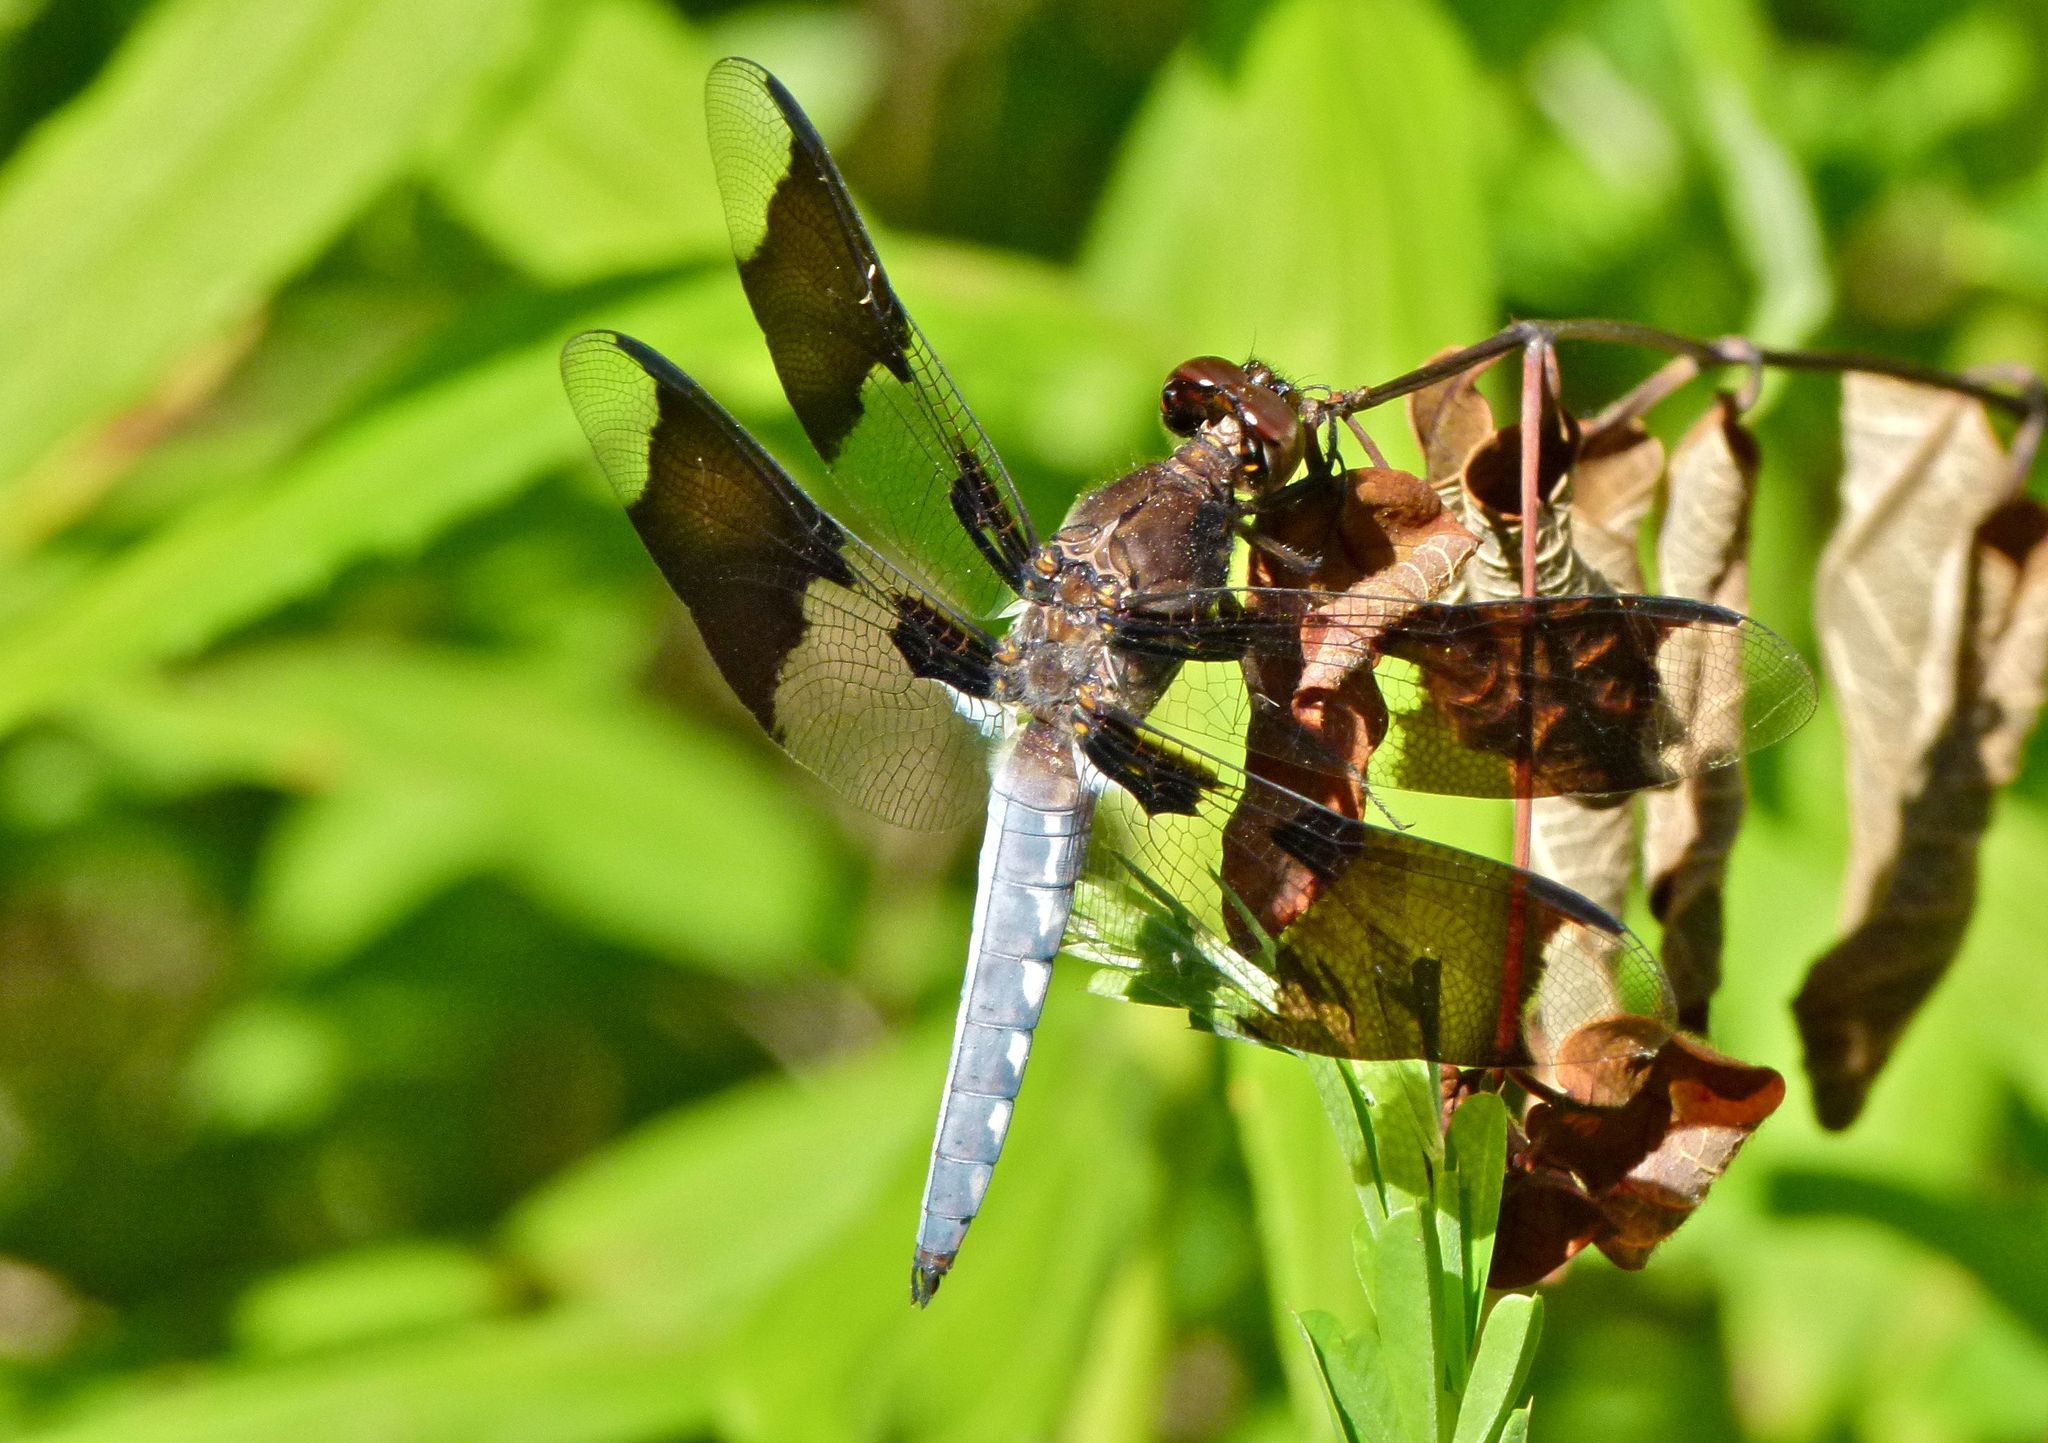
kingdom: Animalia
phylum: Arthropoda
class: Insecta
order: Odonata
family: Libellulidae
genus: Plathemis
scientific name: Plathemis lydia
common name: Common whitetail
